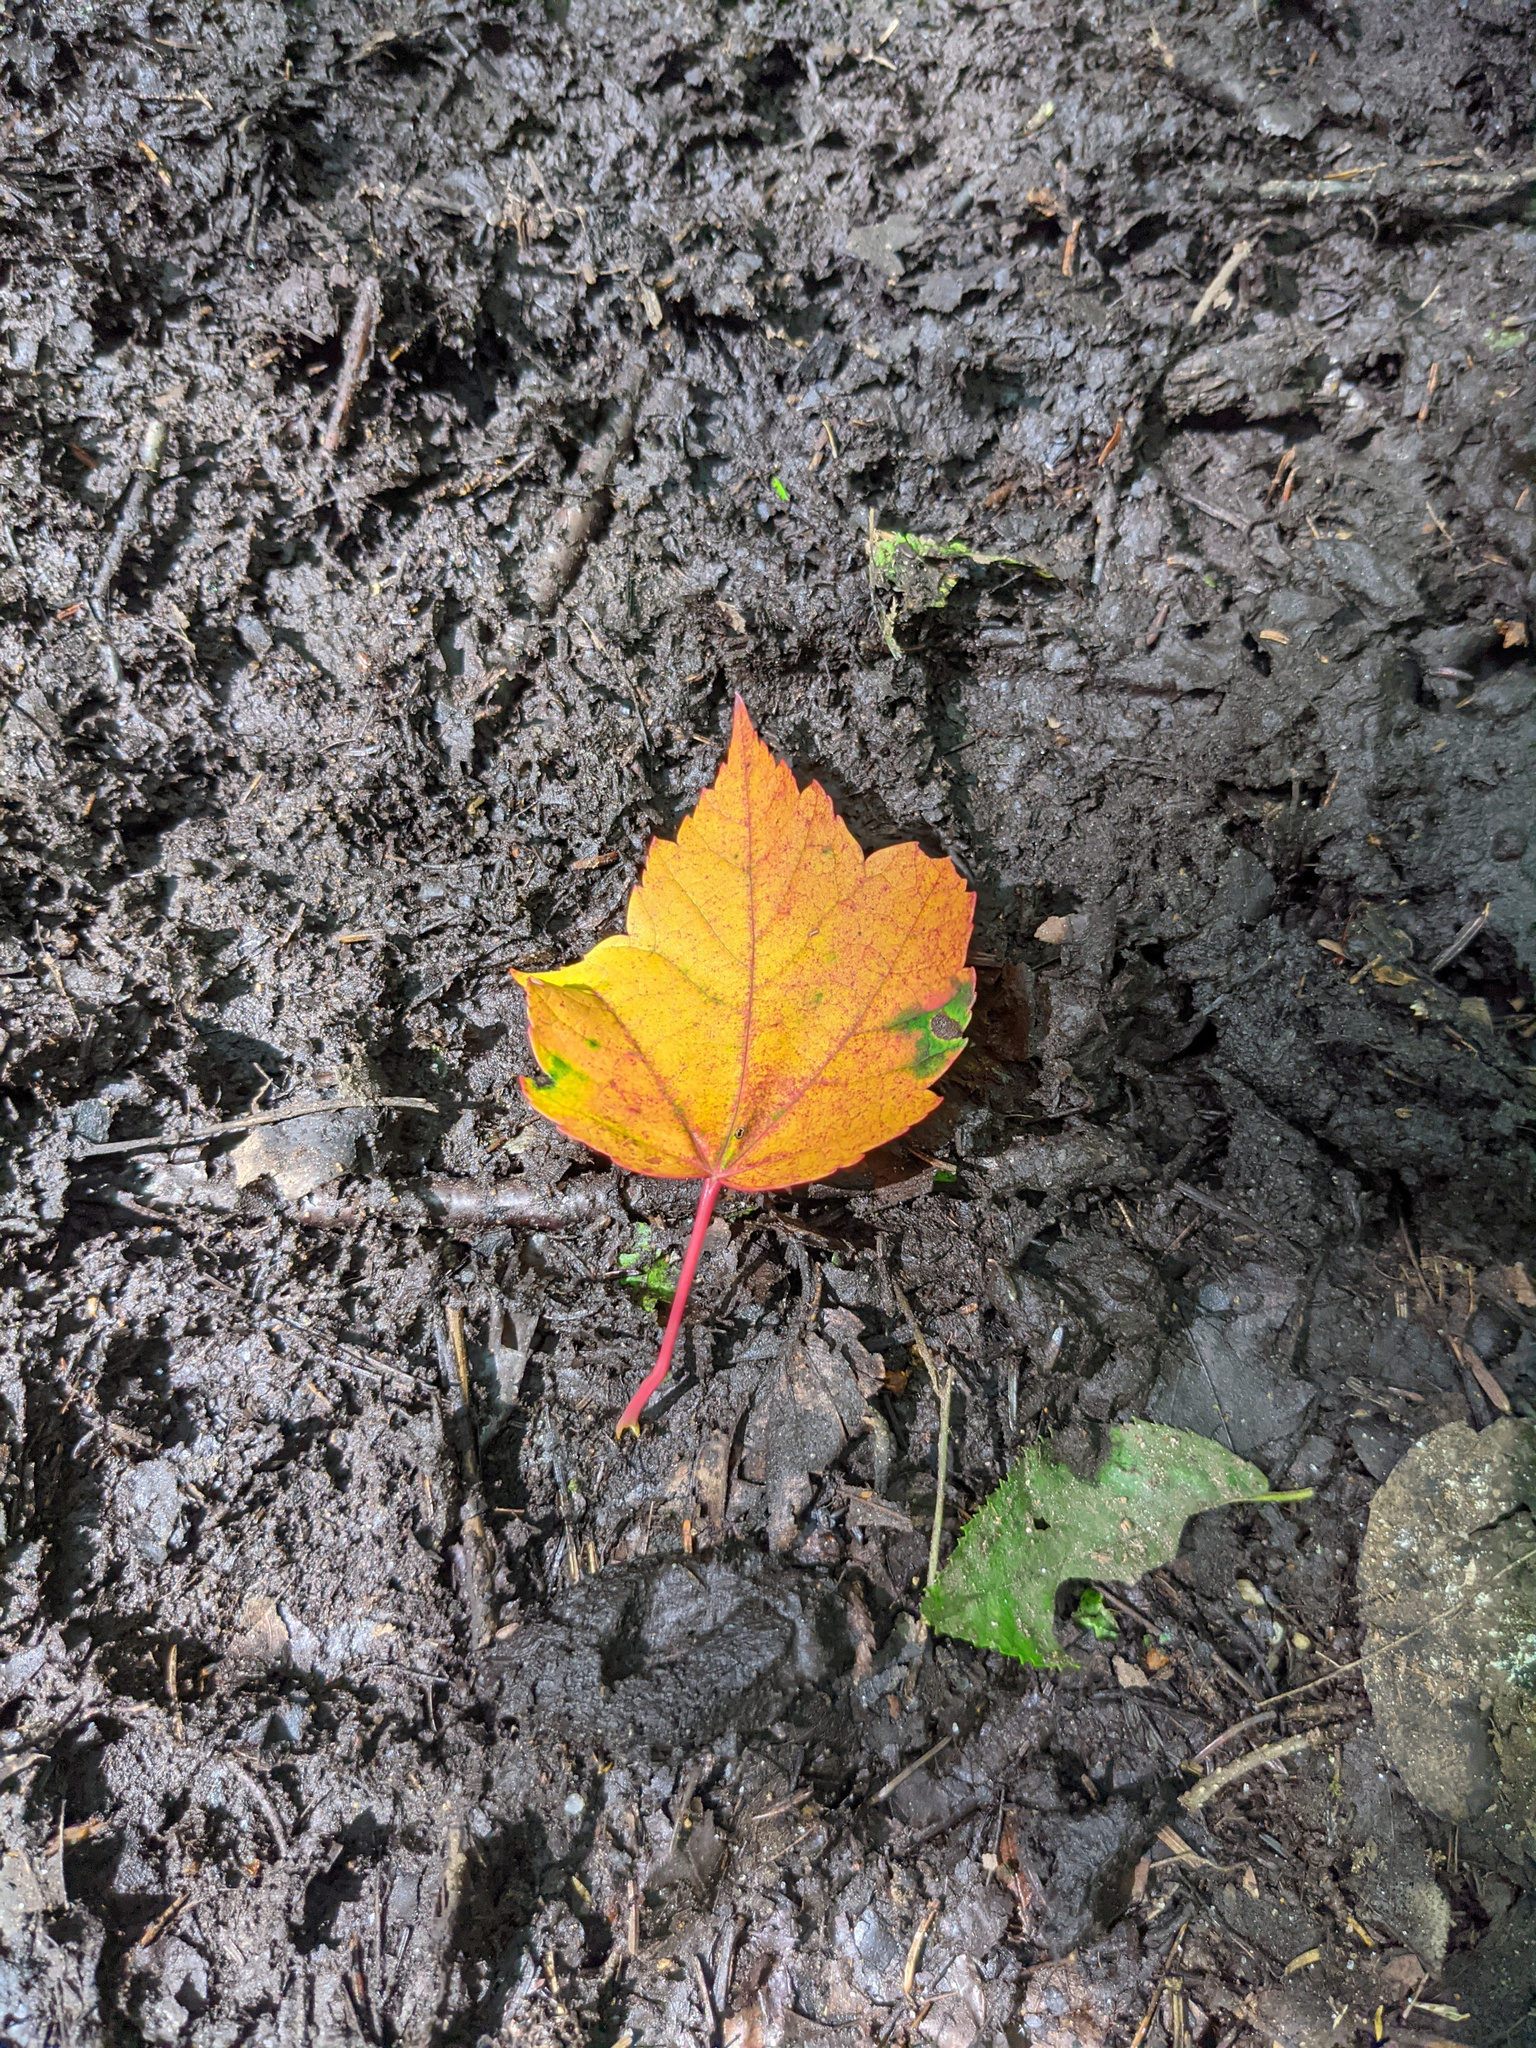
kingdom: Plantae
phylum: Tracheophyta
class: Magnoliopsida
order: Sapindales
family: Sapindaceae
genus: Acer
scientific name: Acer rubrum
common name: Red maple
